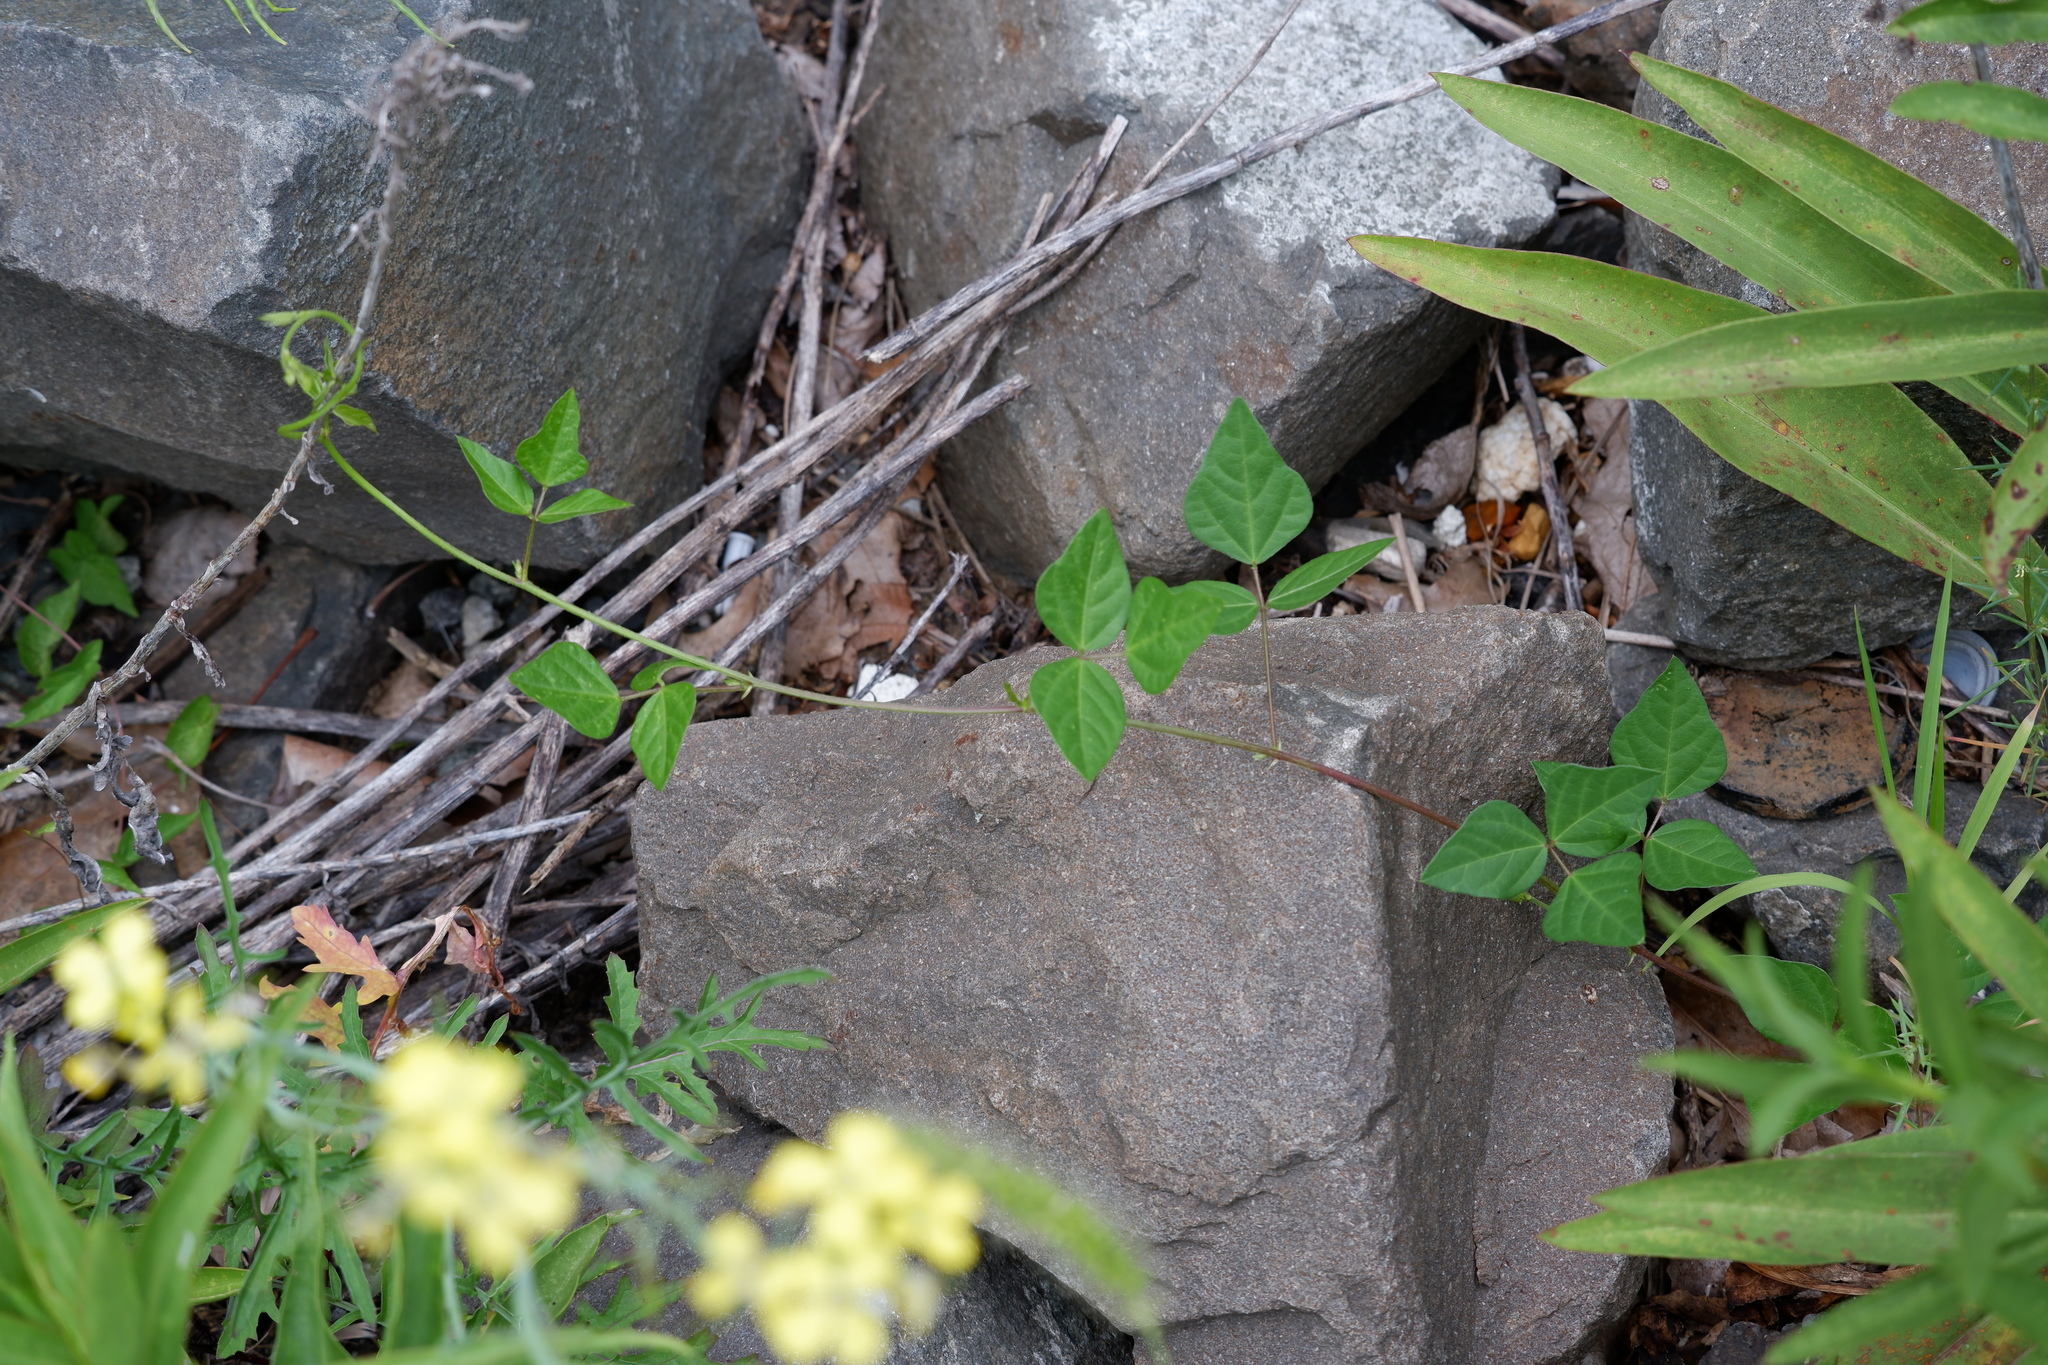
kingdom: Plantae
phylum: Tracheophyta
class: Magnoliopsida
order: Fabales
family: Fabaceae
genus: Strophostyles
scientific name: Strophostyles helvola
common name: Trailing wild bean
